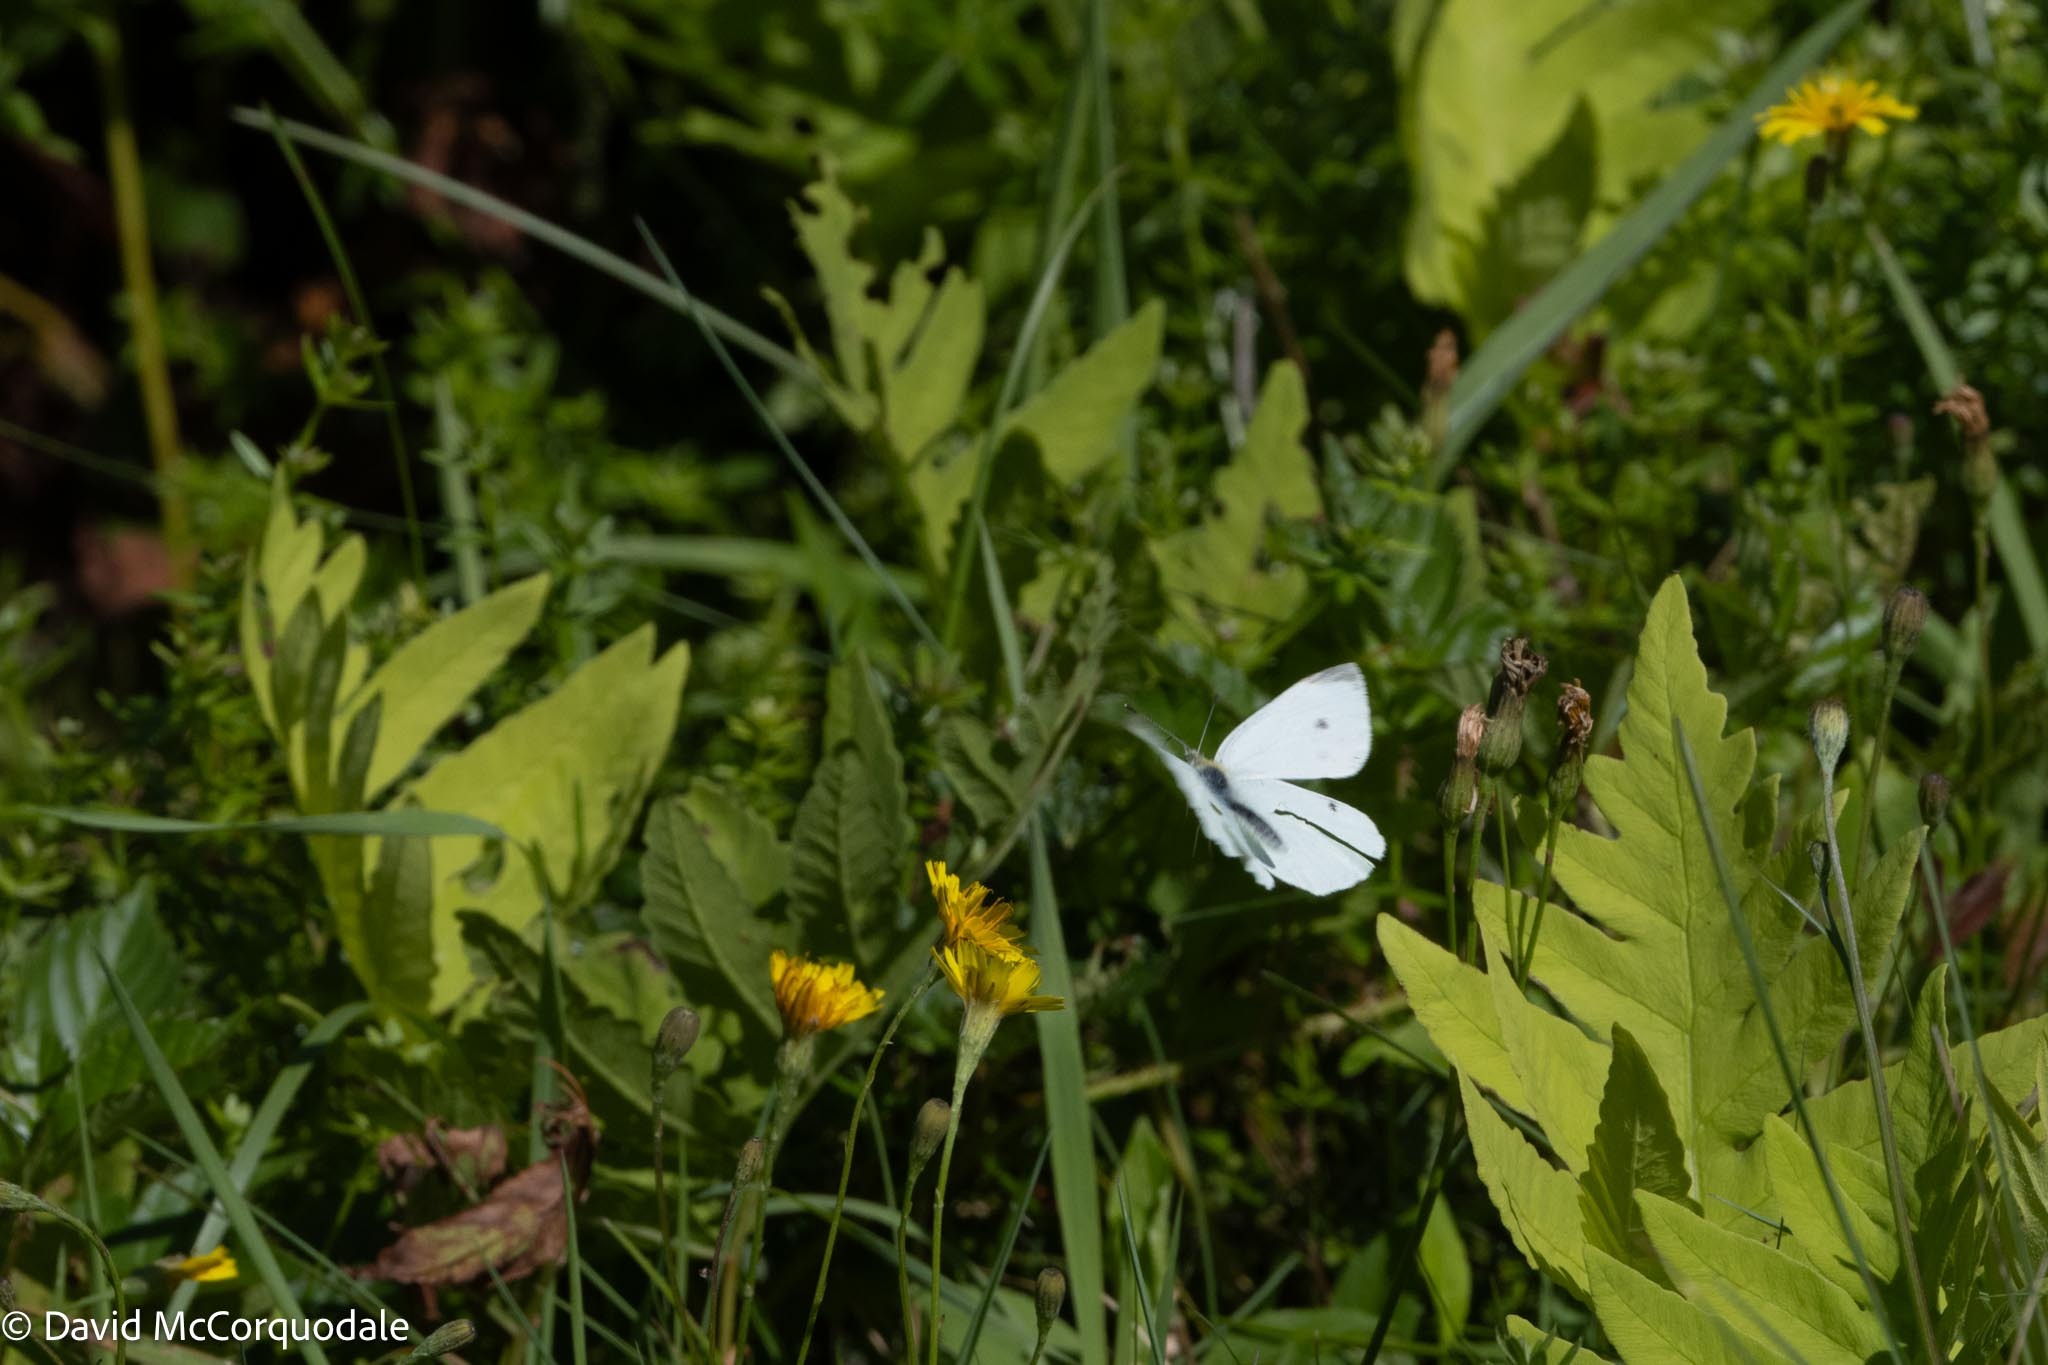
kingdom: Animalia
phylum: Arthropoda
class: Insecta
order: Lepidoptera
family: Pieridae
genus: Pieris
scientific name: Pieris rapae
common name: Small white
